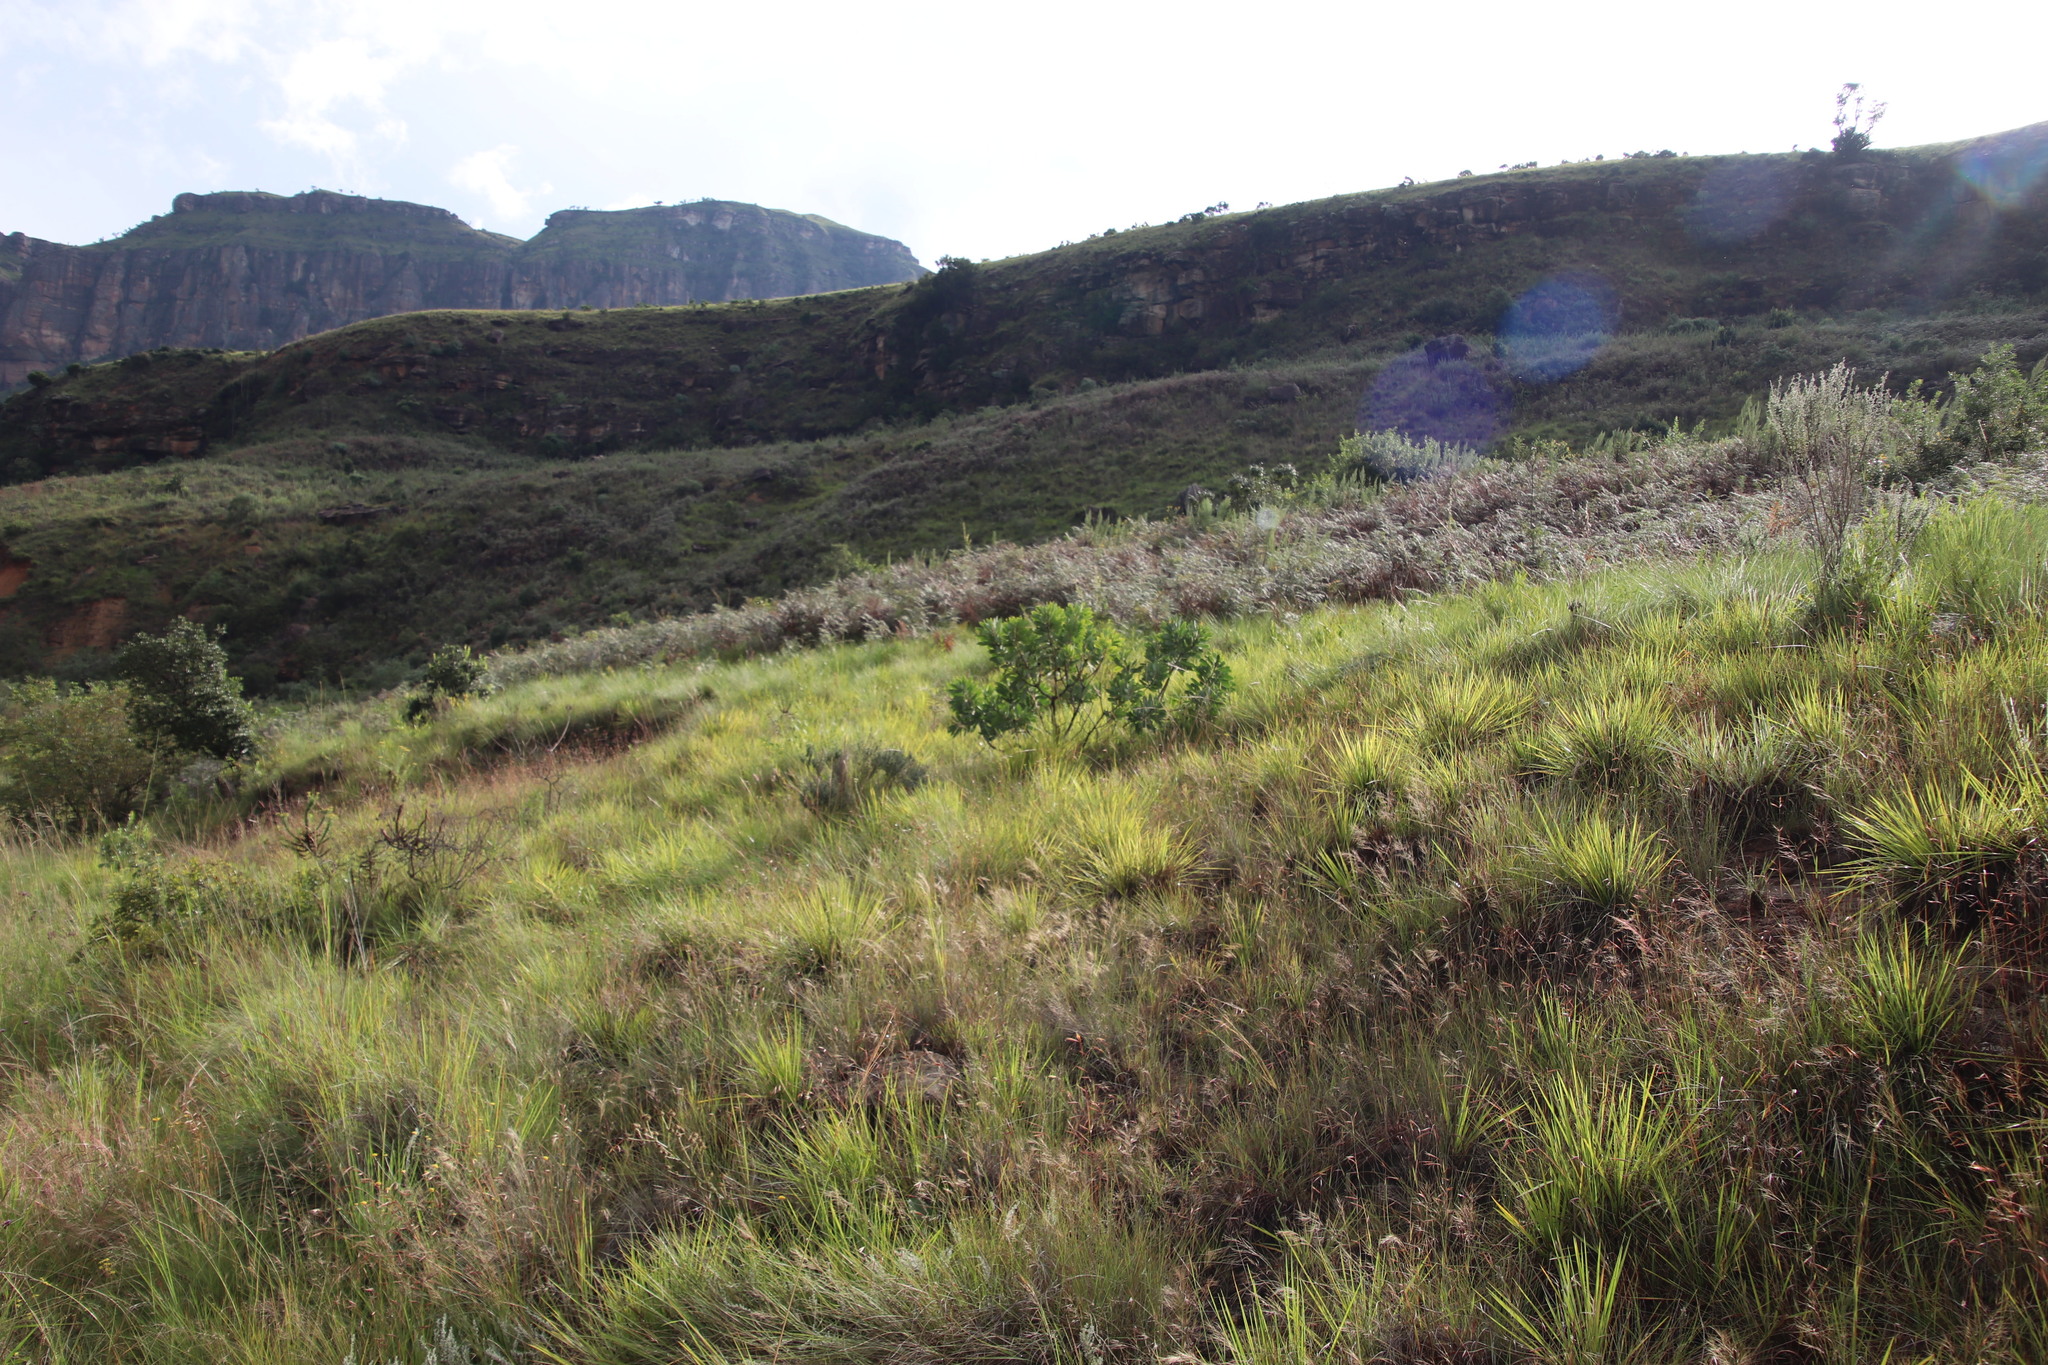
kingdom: Plantae
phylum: Tracheophyta
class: Magnoliopsida
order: Proteales
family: Proteaceae
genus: Protea
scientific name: Protea caffra
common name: Common sugarbush
